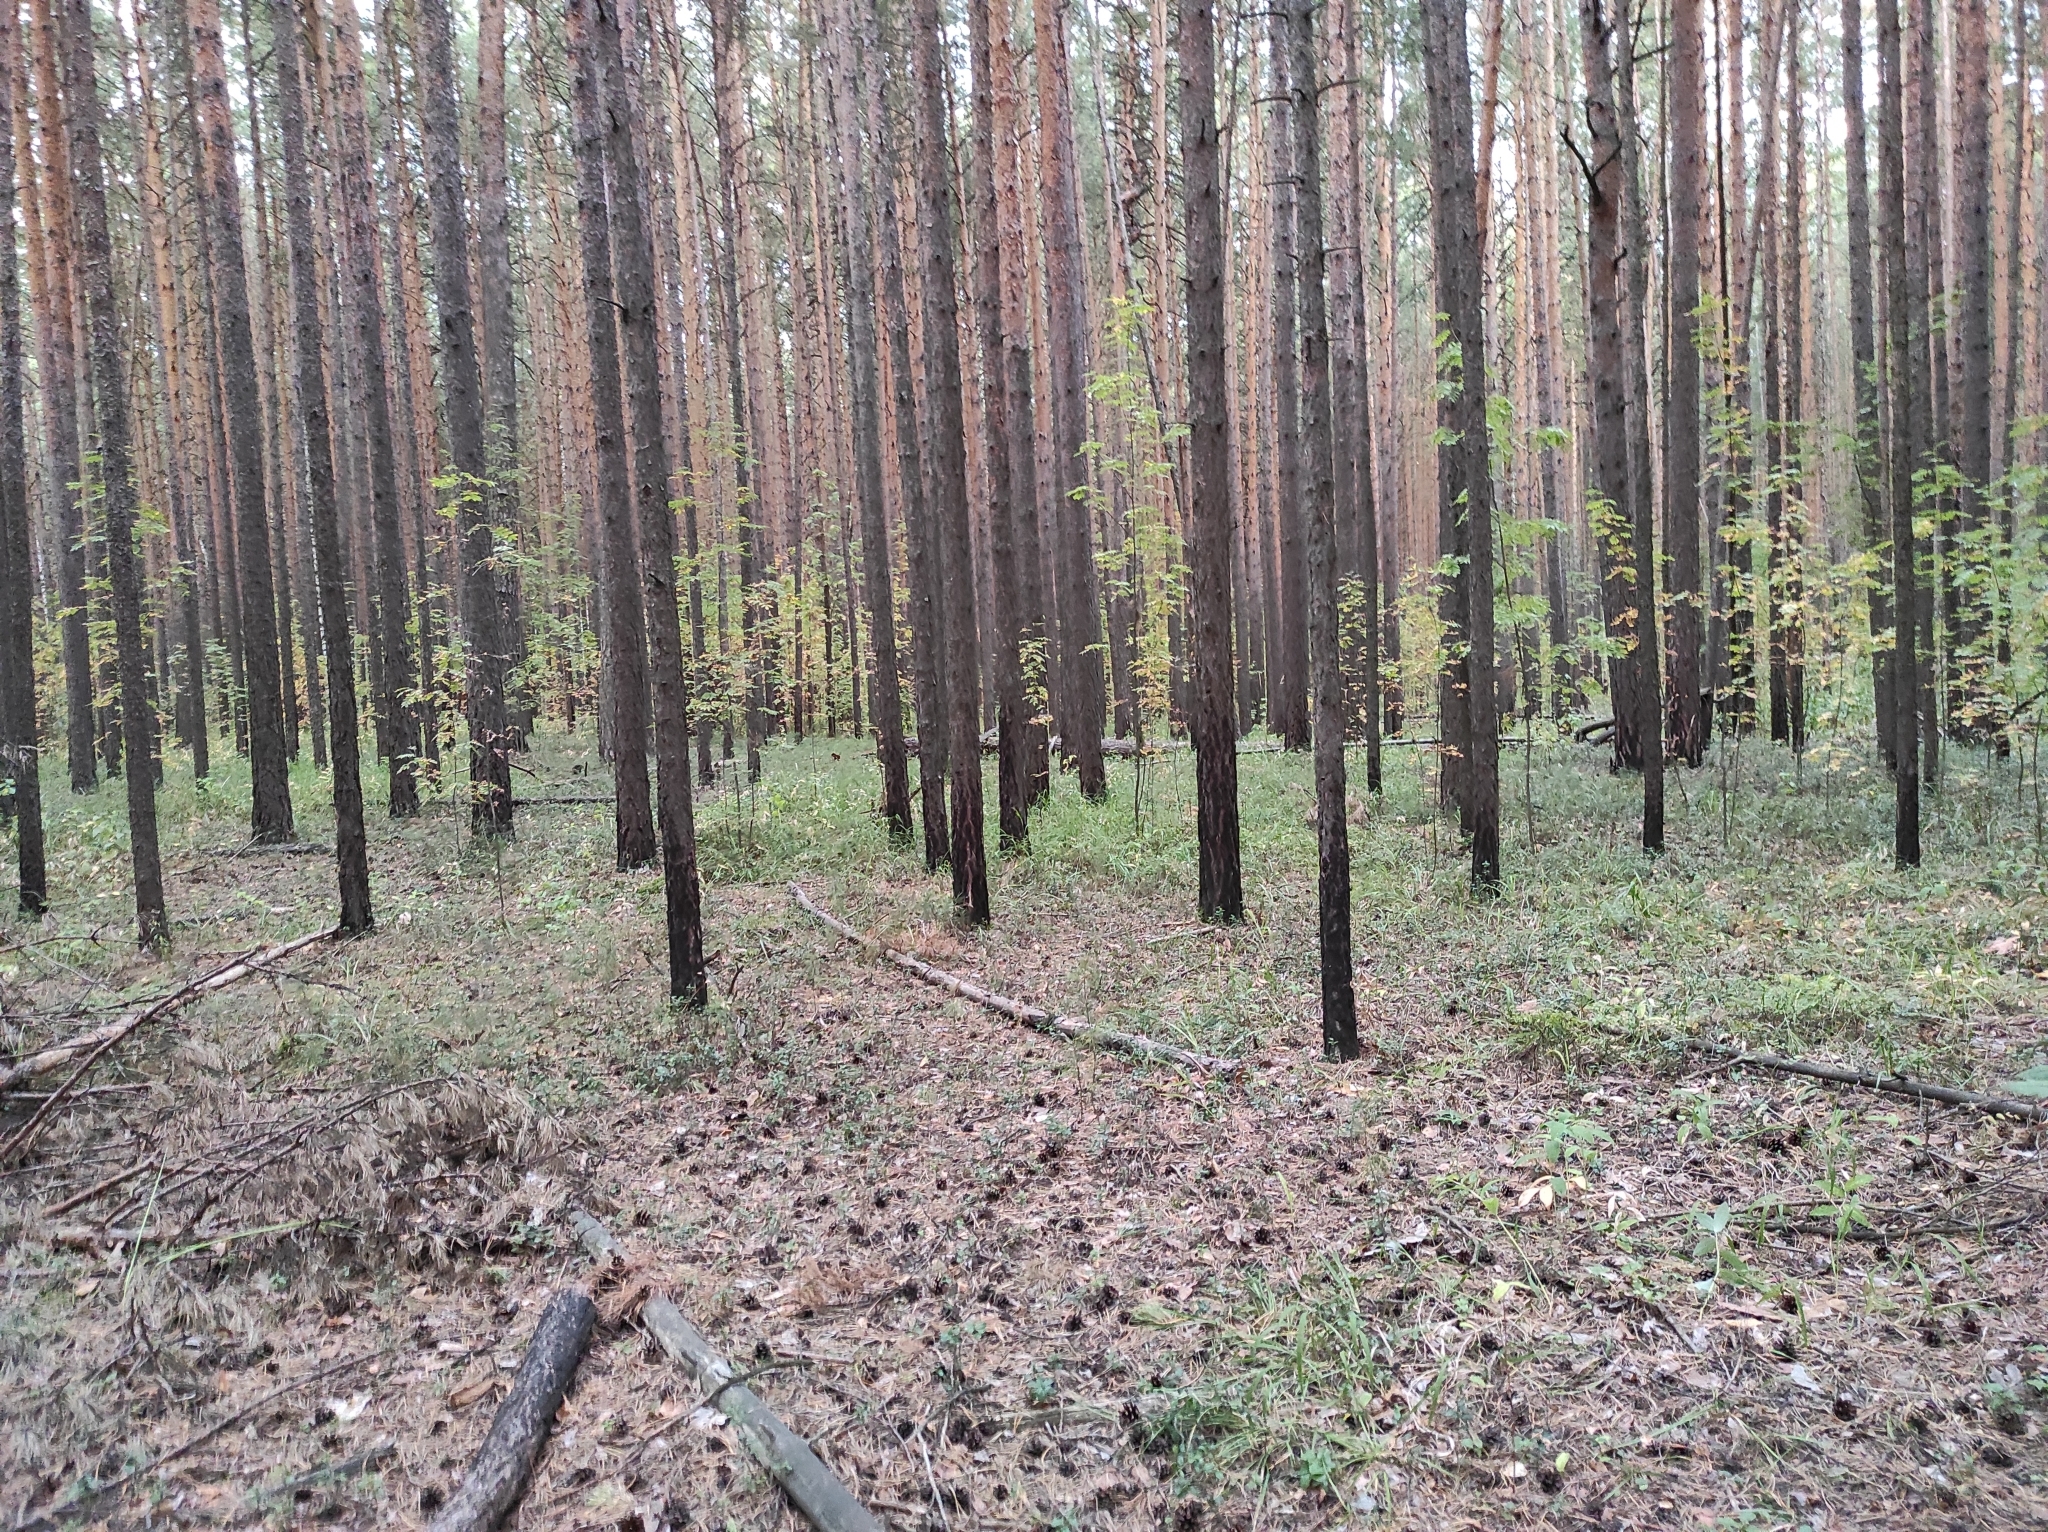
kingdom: Plantae
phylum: Tracheophyta
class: Pinopsida
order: Pinales
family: Pinaceae
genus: Pinus
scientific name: Pinus sylvestris
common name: Scots pine
